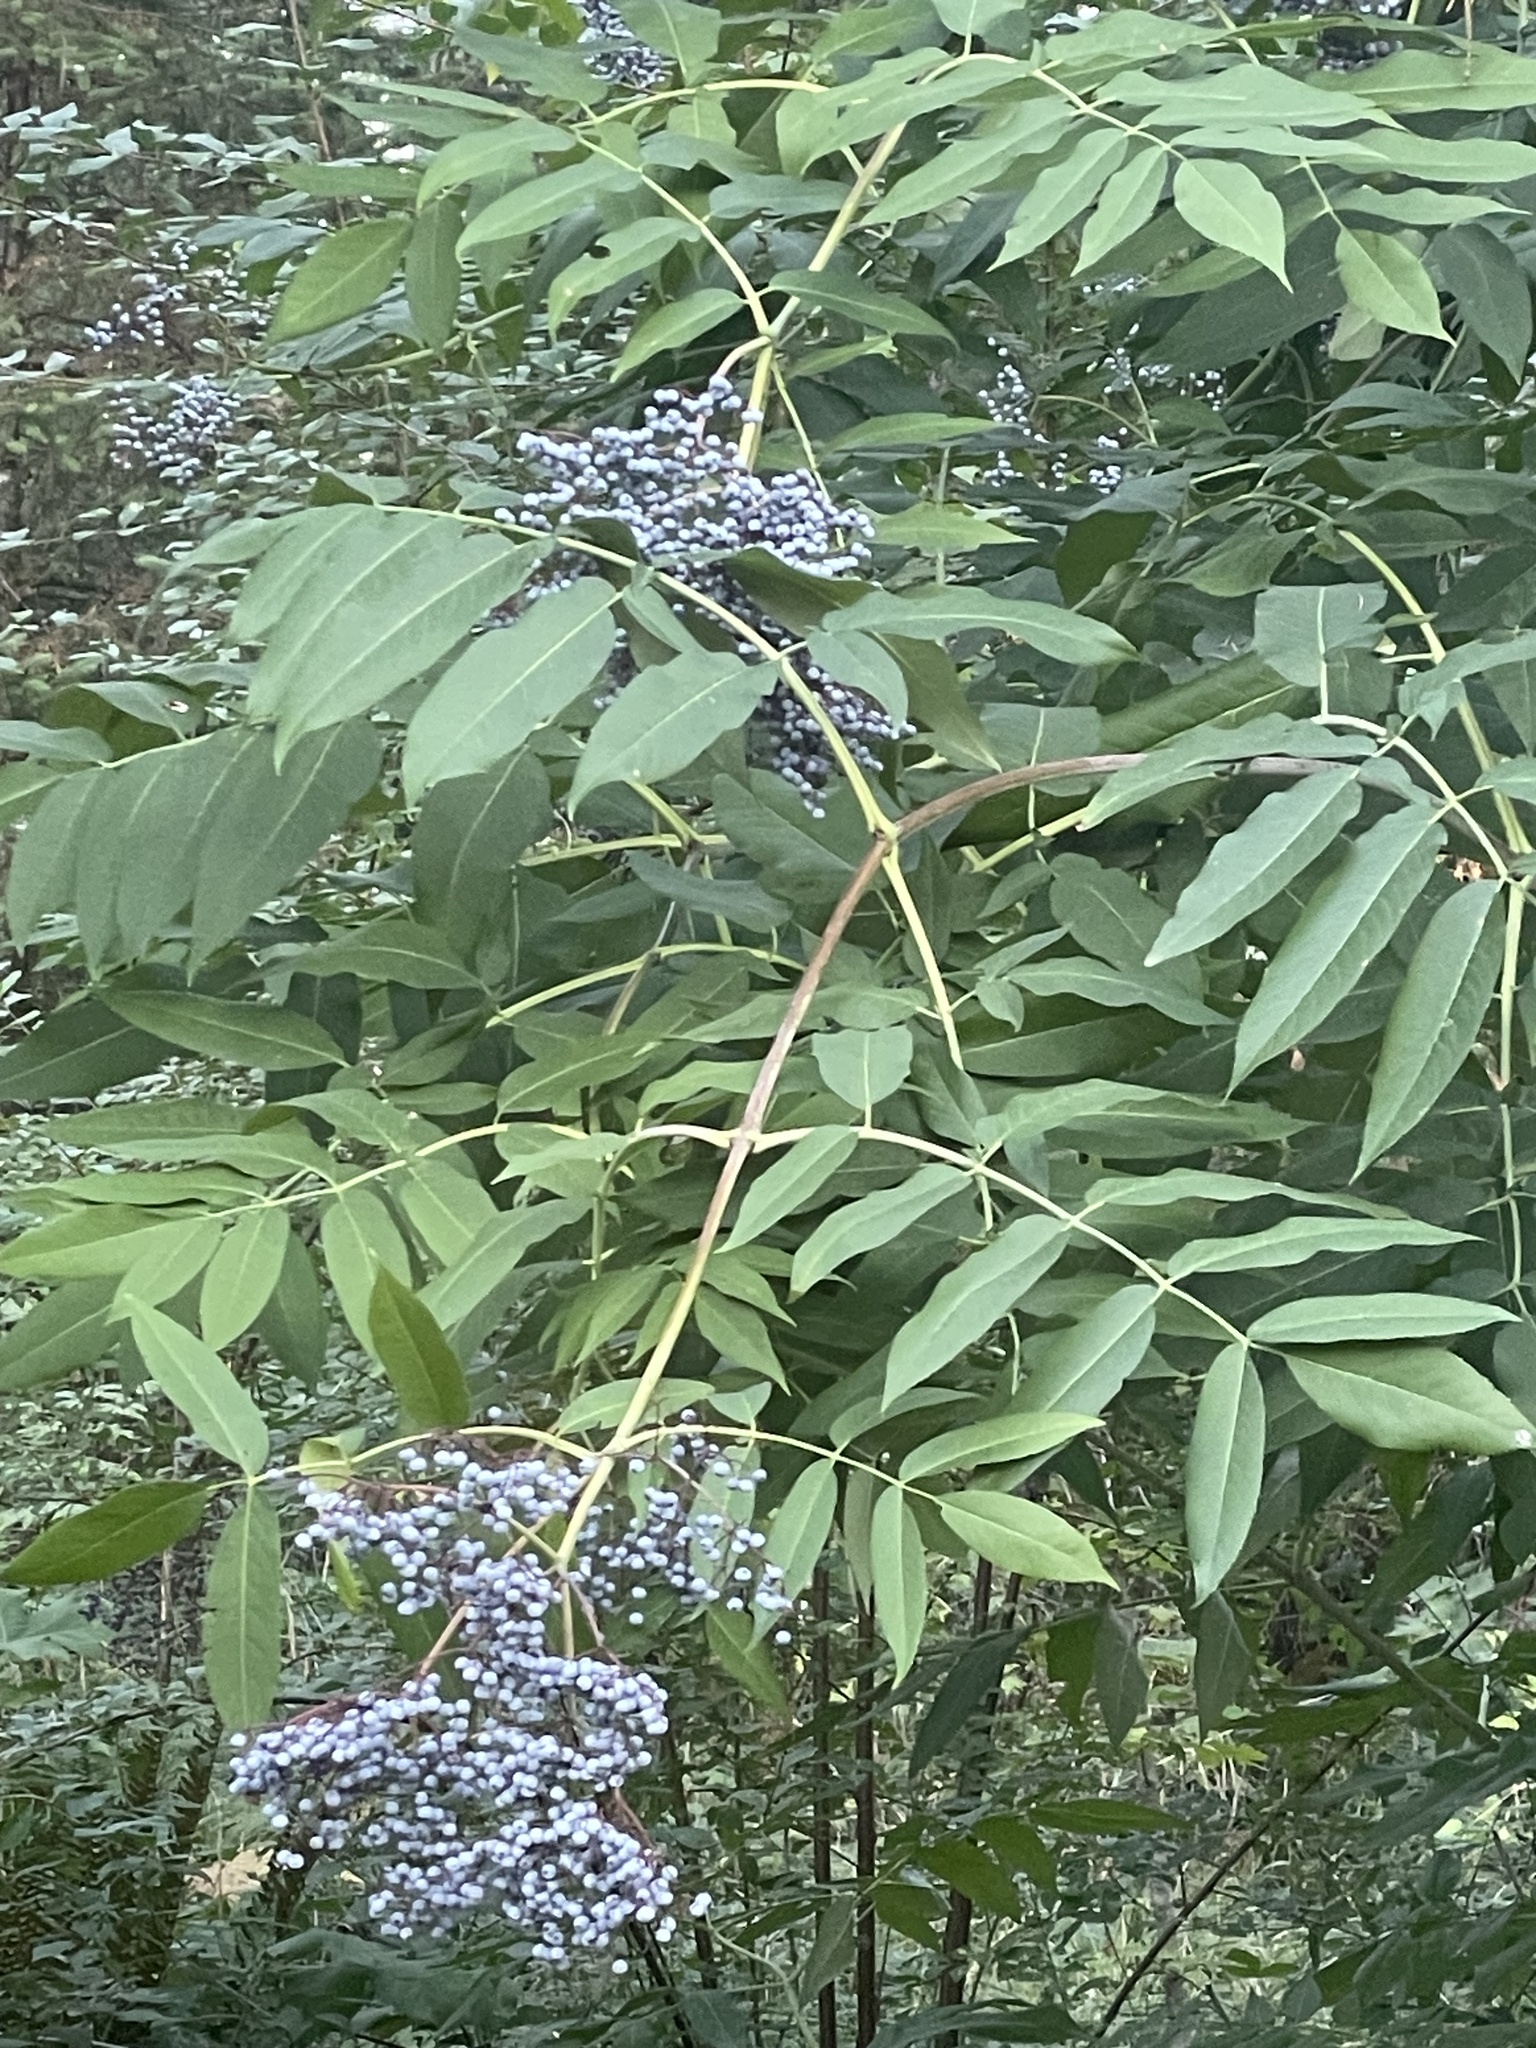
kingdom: Plantae
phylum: Tracheophyta
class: Magnoliopsida
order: Dipsacales
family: Viburnaceae
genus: Sambucus
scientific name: Sambucus cerulea
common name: Blue elder
